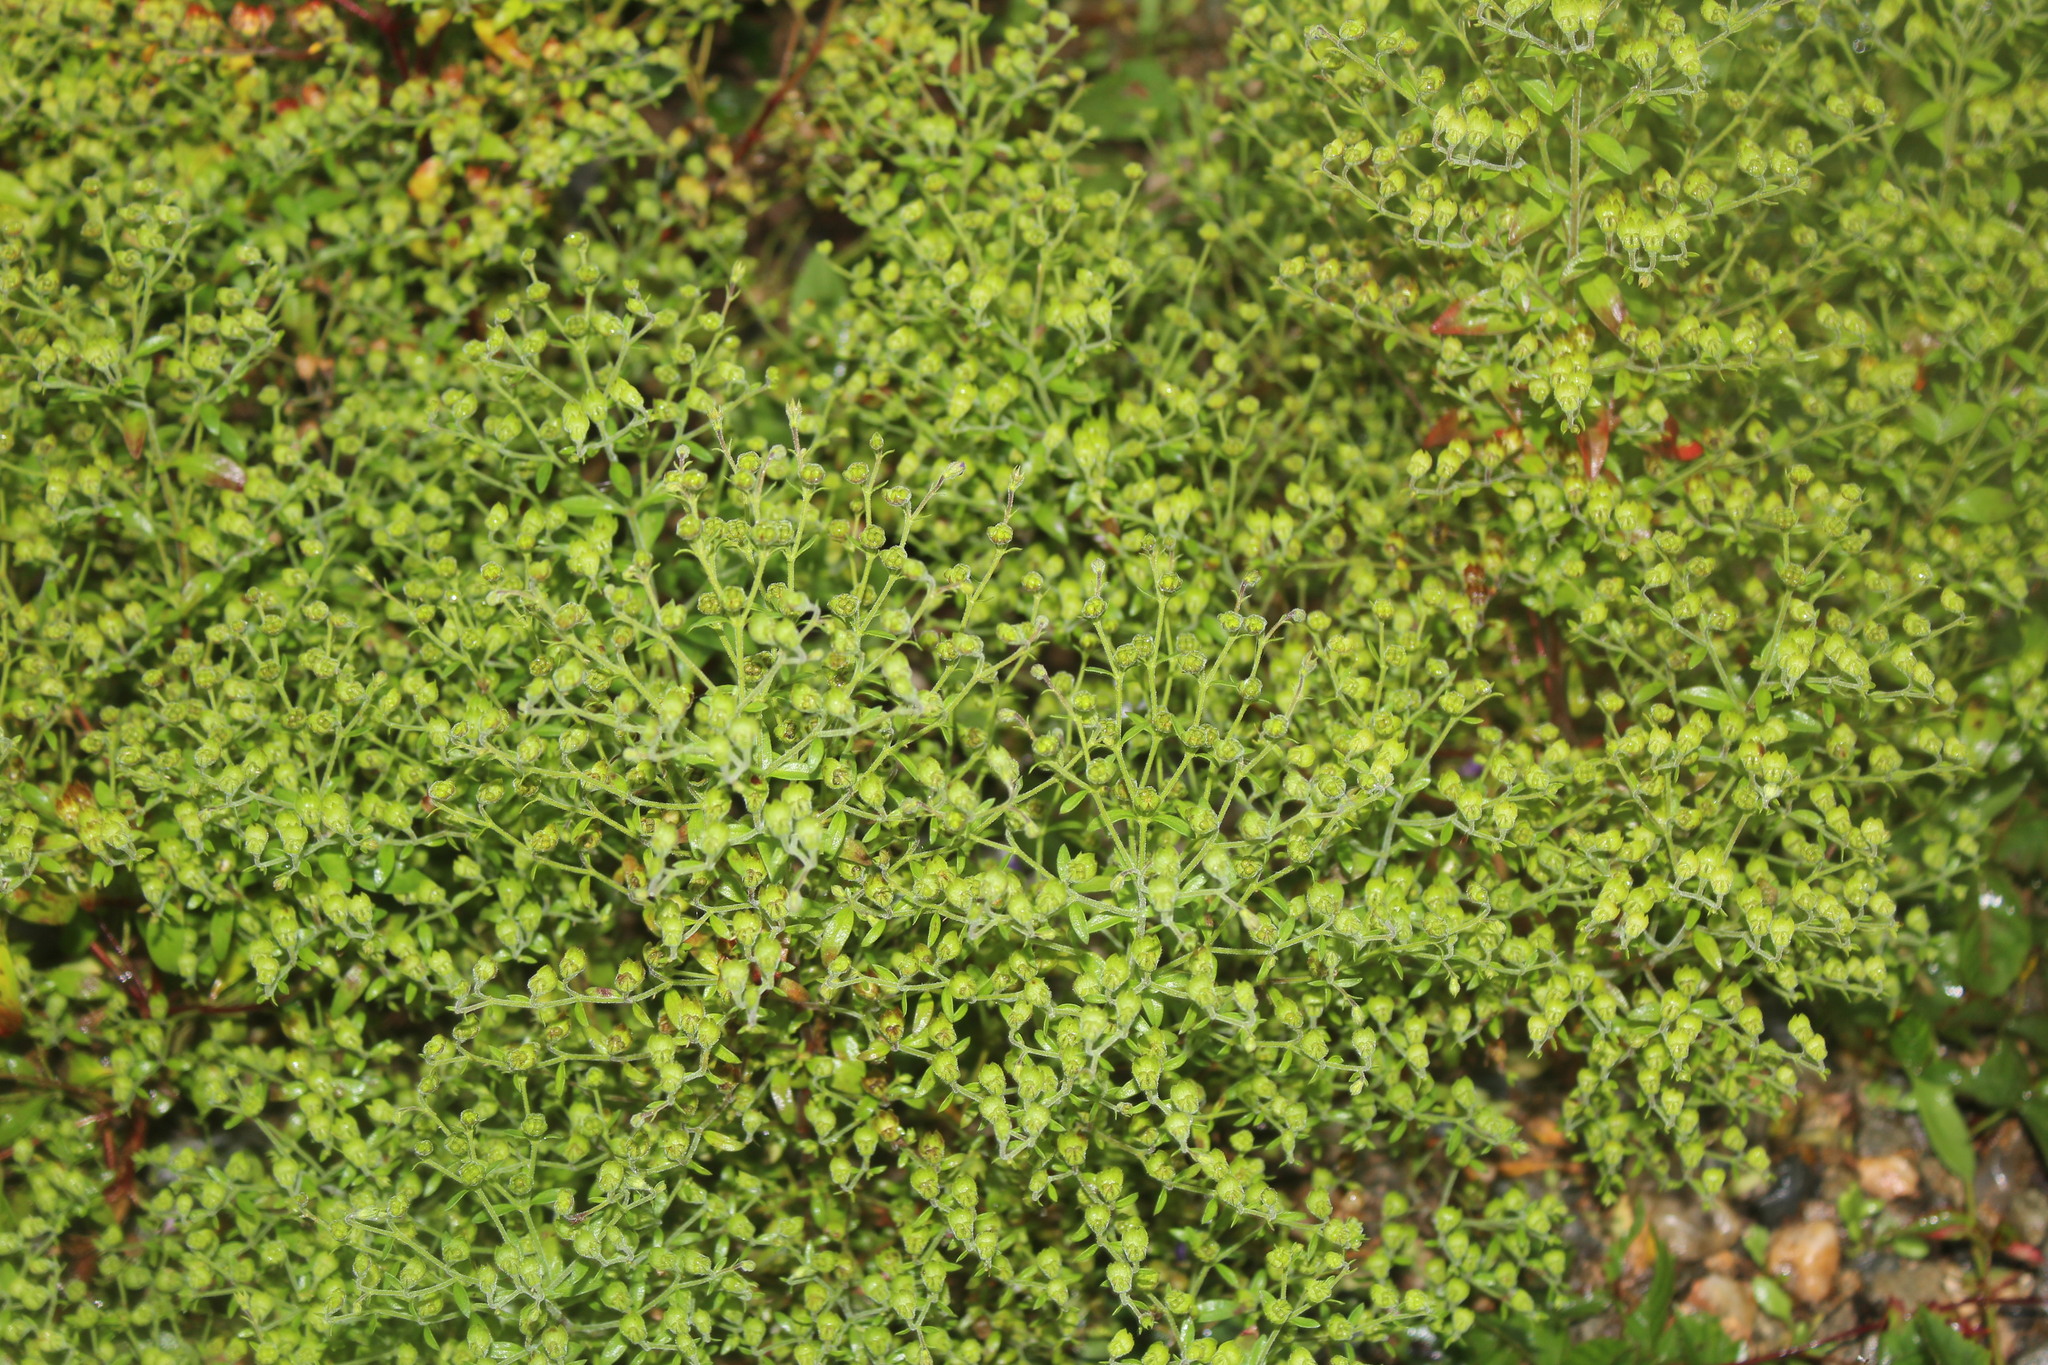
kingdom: Plantae
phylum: Tracheophyta
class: Magnoliopsida
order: Lamiales
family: Lamiaceae
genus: Trichostema
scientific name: Trichostema dichotomum
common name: Bastard pennyroyal
